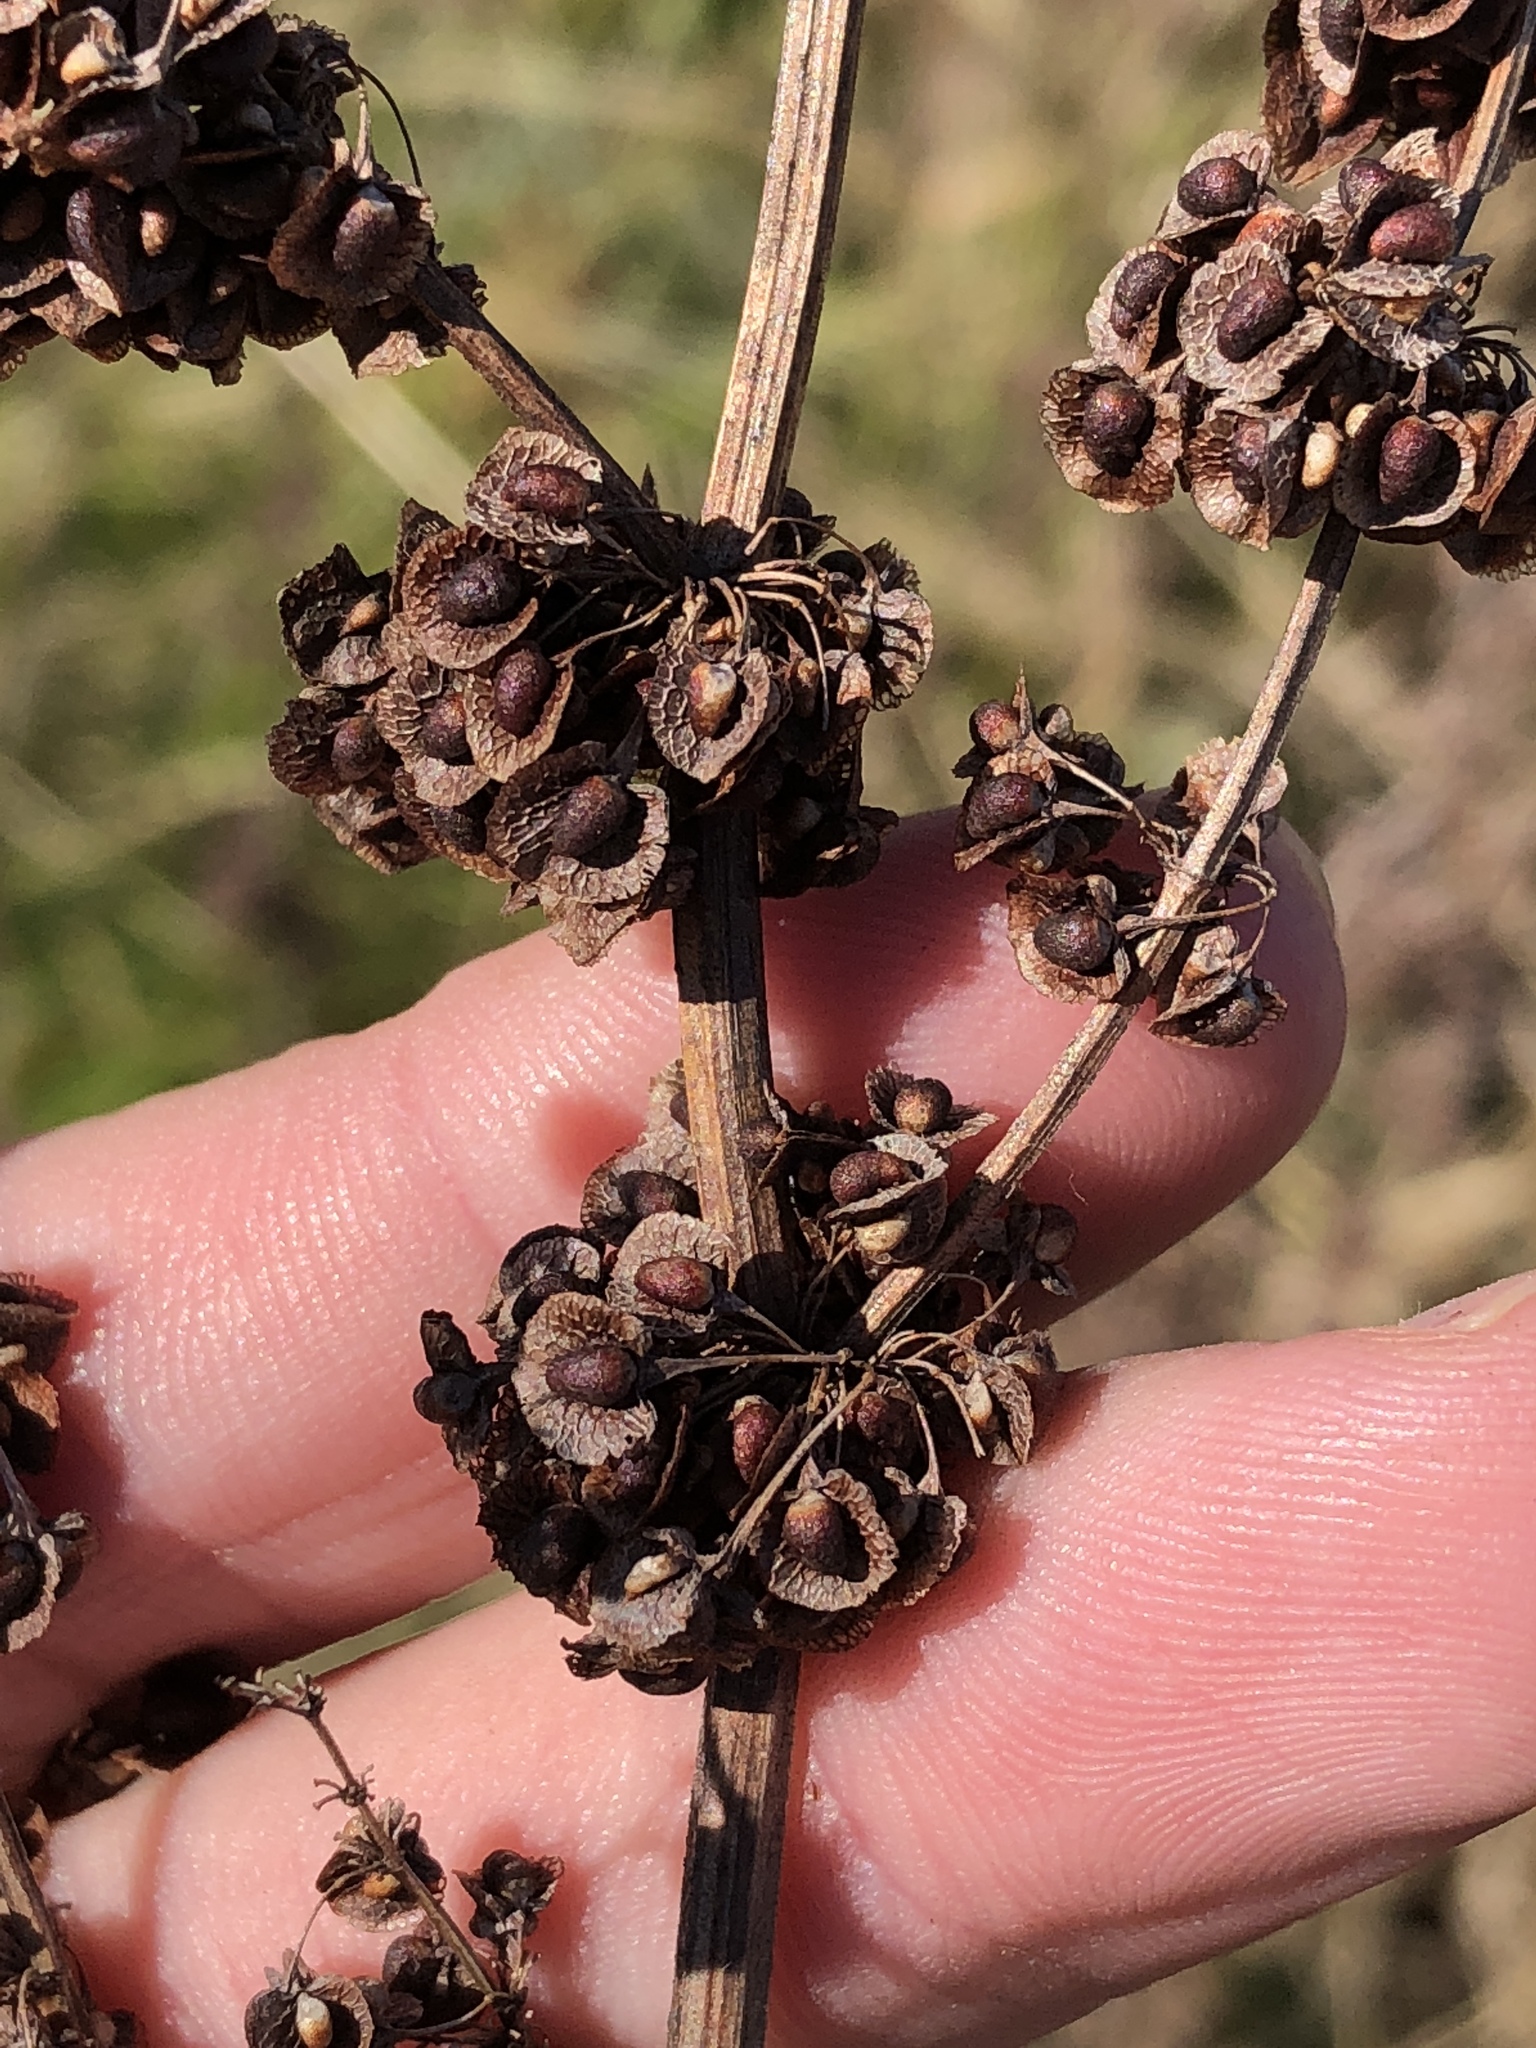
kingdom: Plantae
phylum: Tracheophyta
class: Magnoliopsida
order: Caryophyllales
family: Polygonaceae
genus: Rumex
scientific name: Rumex crispus
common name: Curled dock
